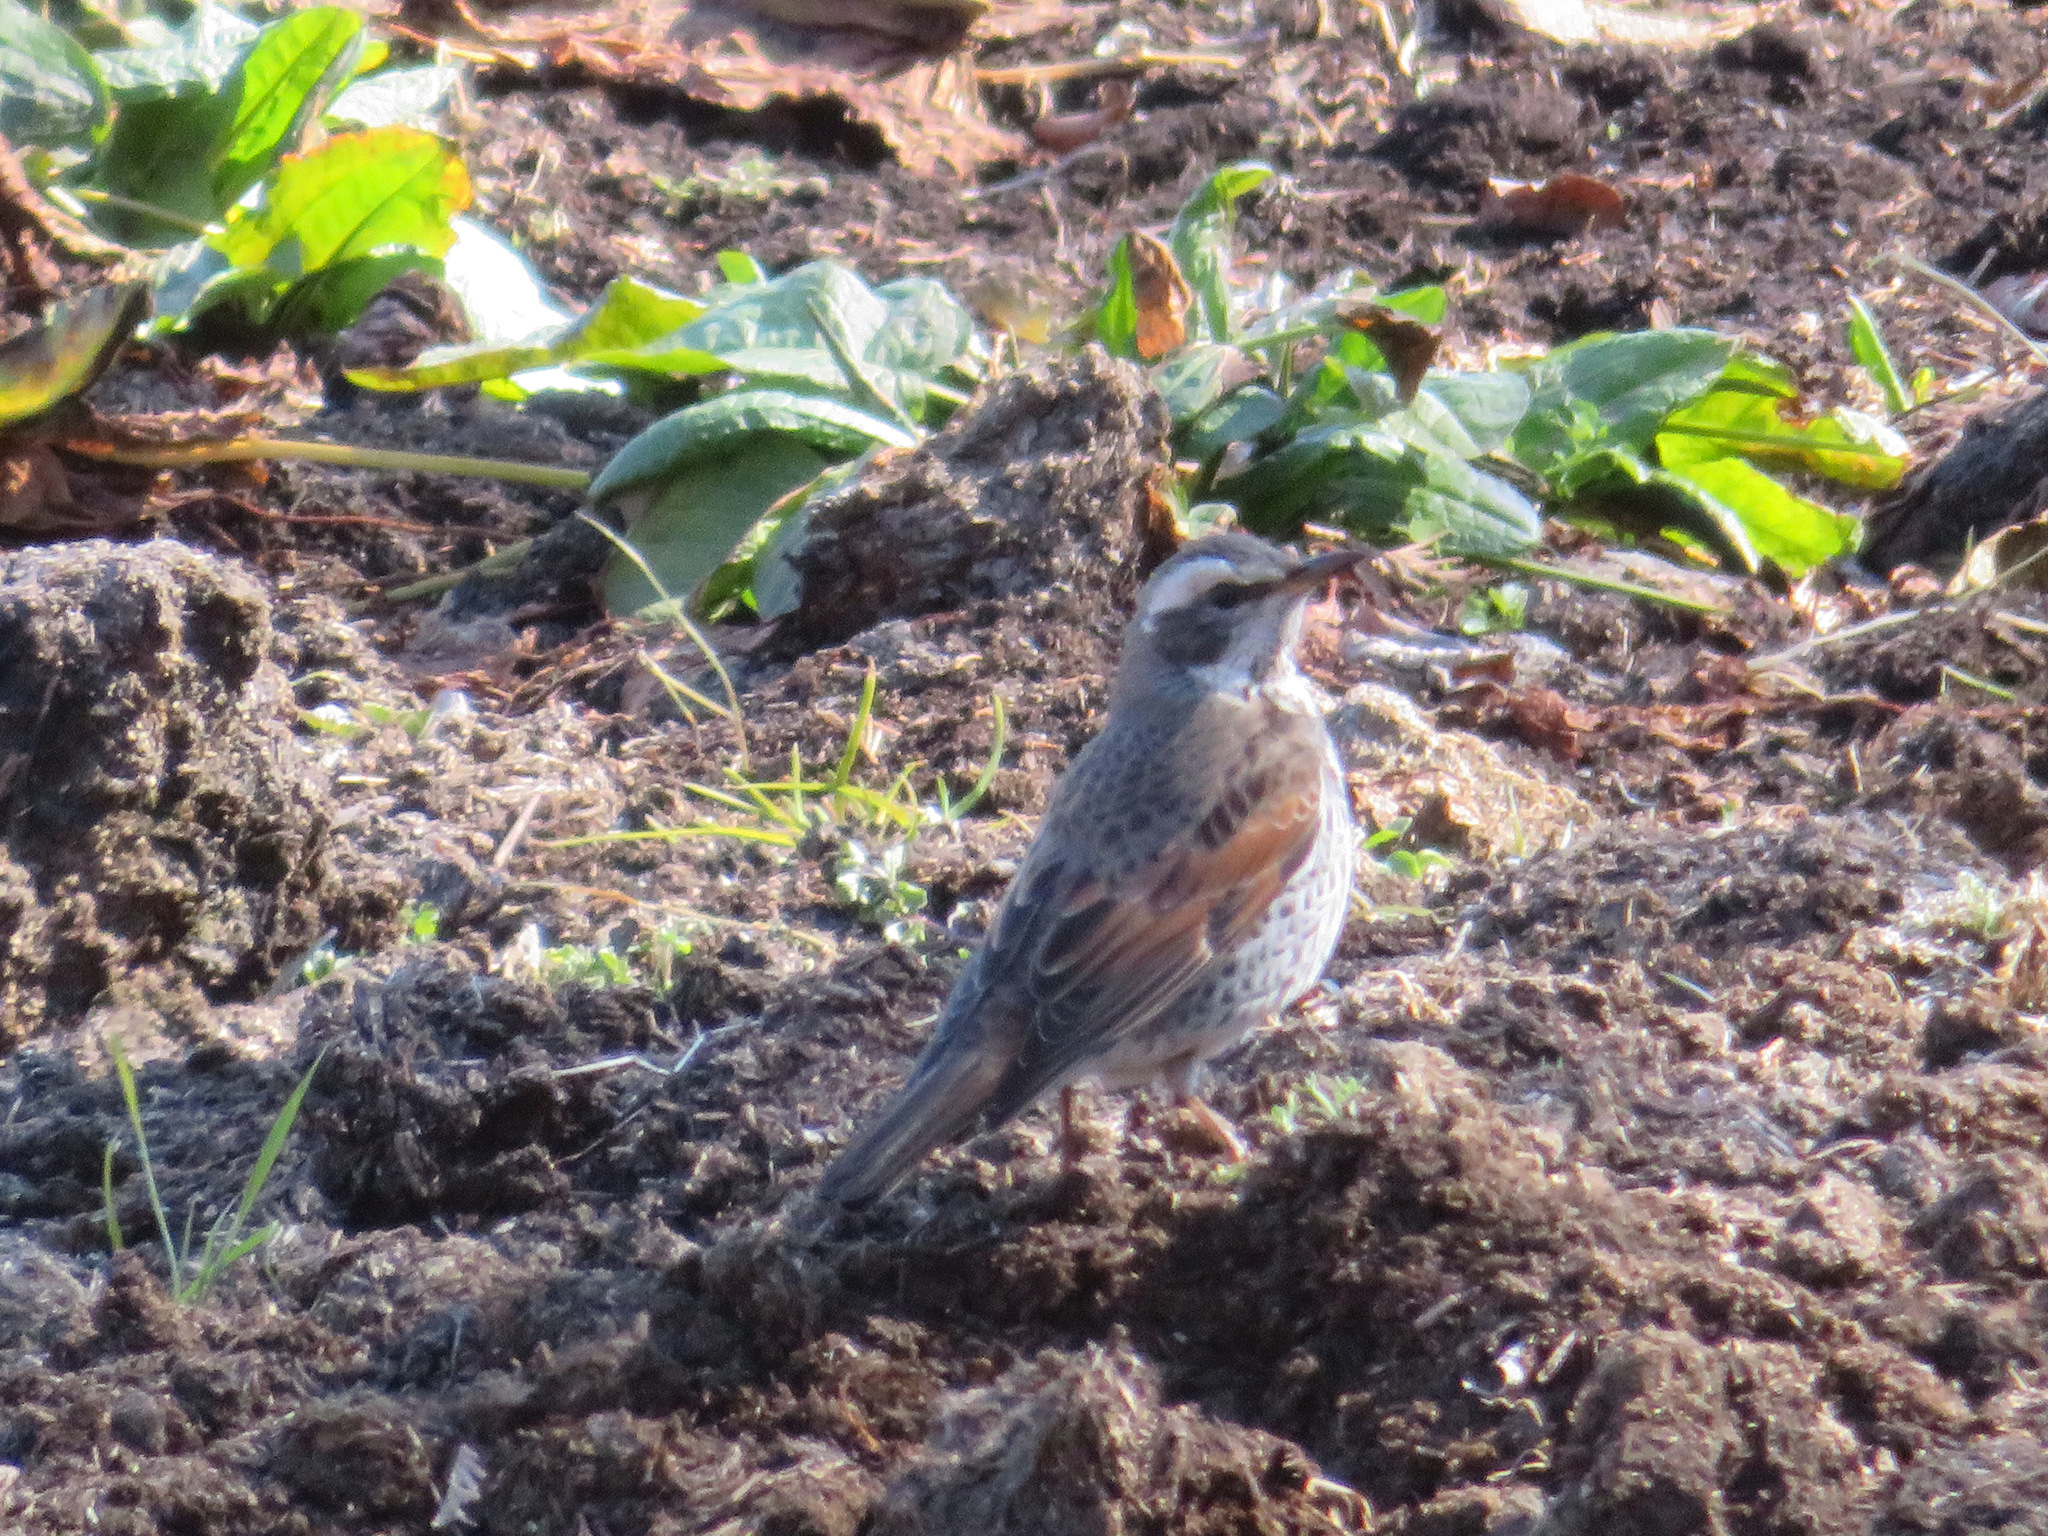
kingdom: Animalia
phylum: Chordata
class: Aves
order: Passeriformes
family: Turdidae
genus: Turdus
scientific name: Turdus eunomus
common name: Dusky thrush
